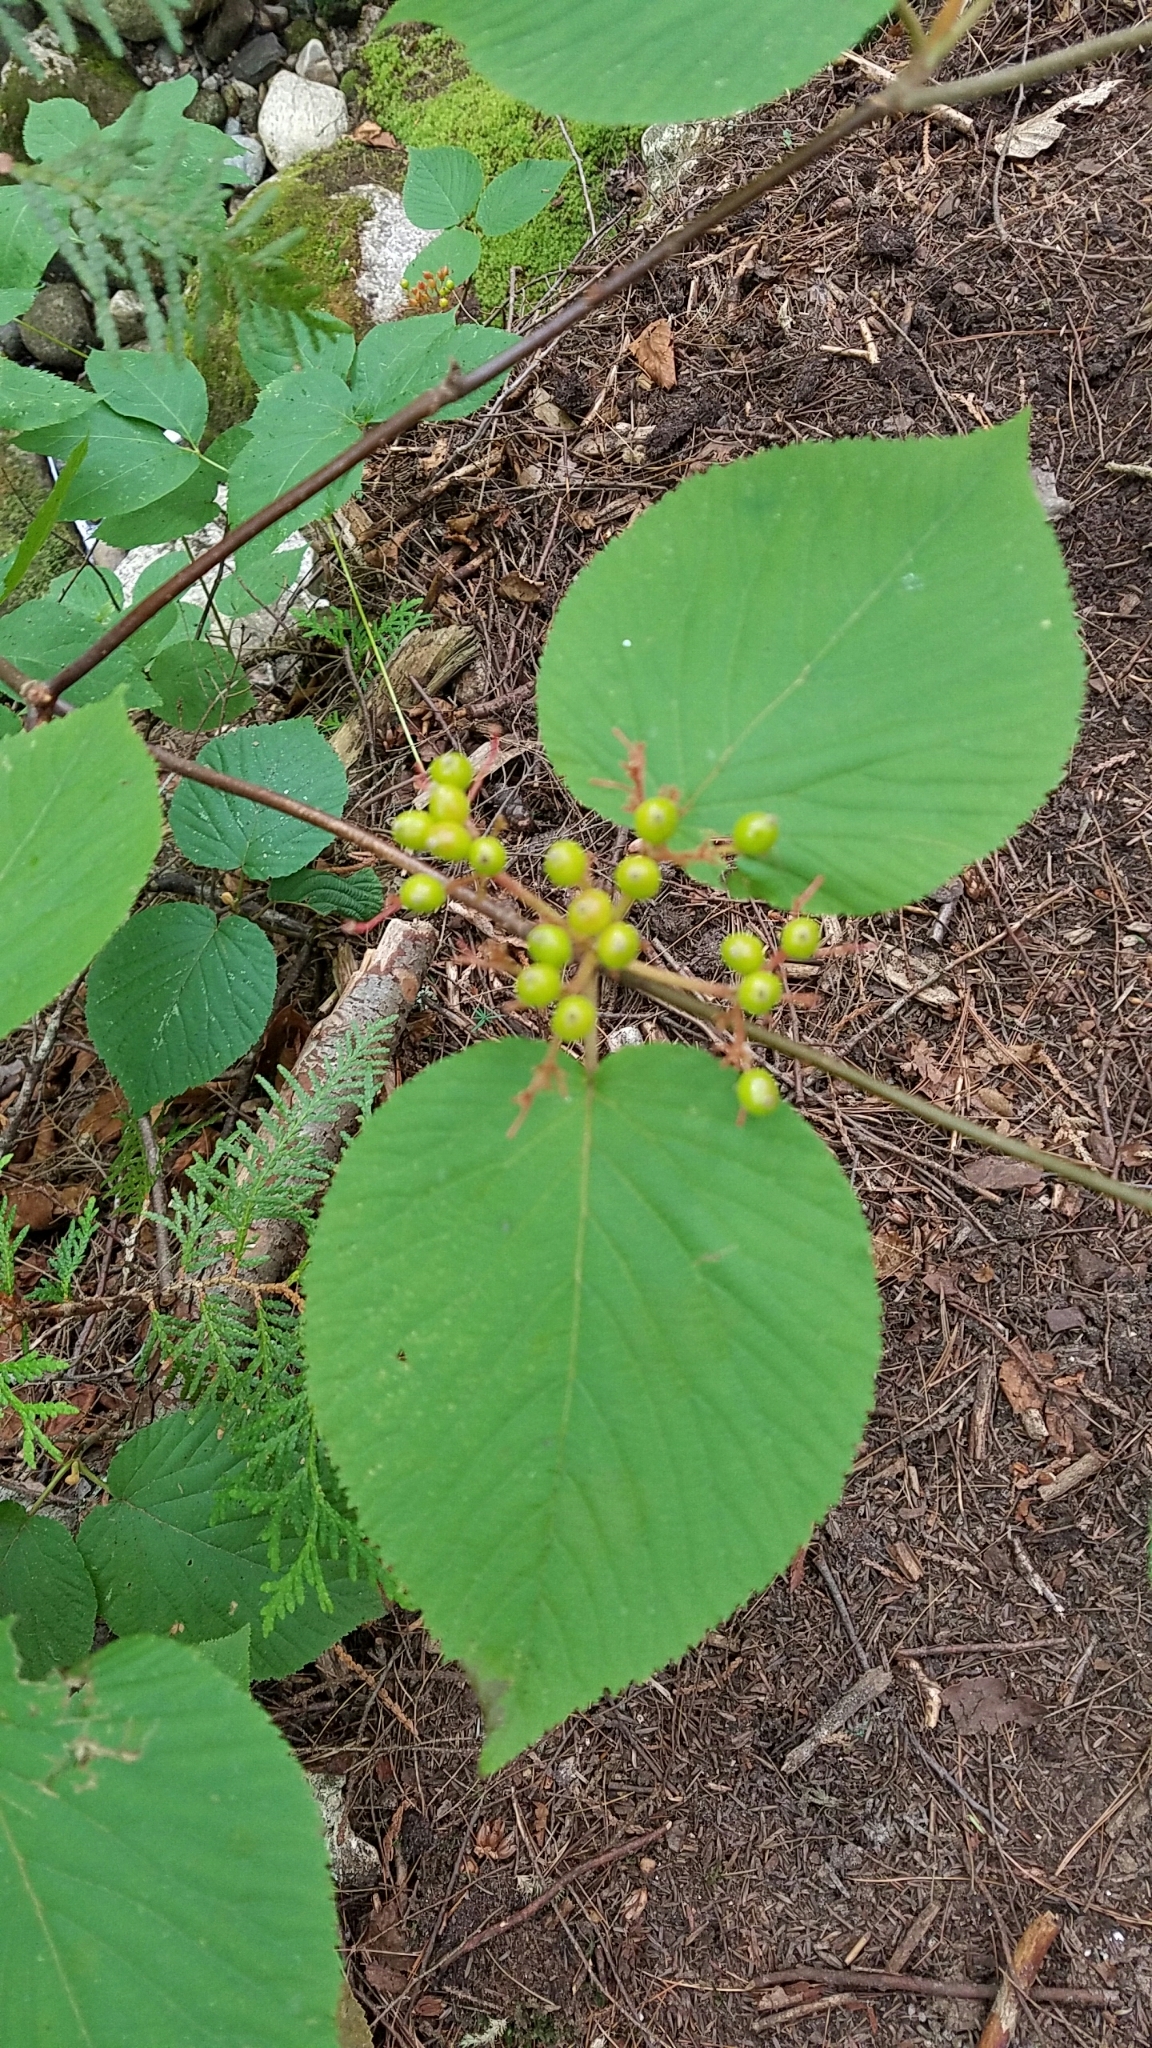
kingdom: Plantae
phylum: Tracheophyta
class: Magnoliopsida
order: Dipsacales
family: Viburnaceae
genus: Viburnum
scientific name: Viburnum lantanoides
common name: Hobblebush
